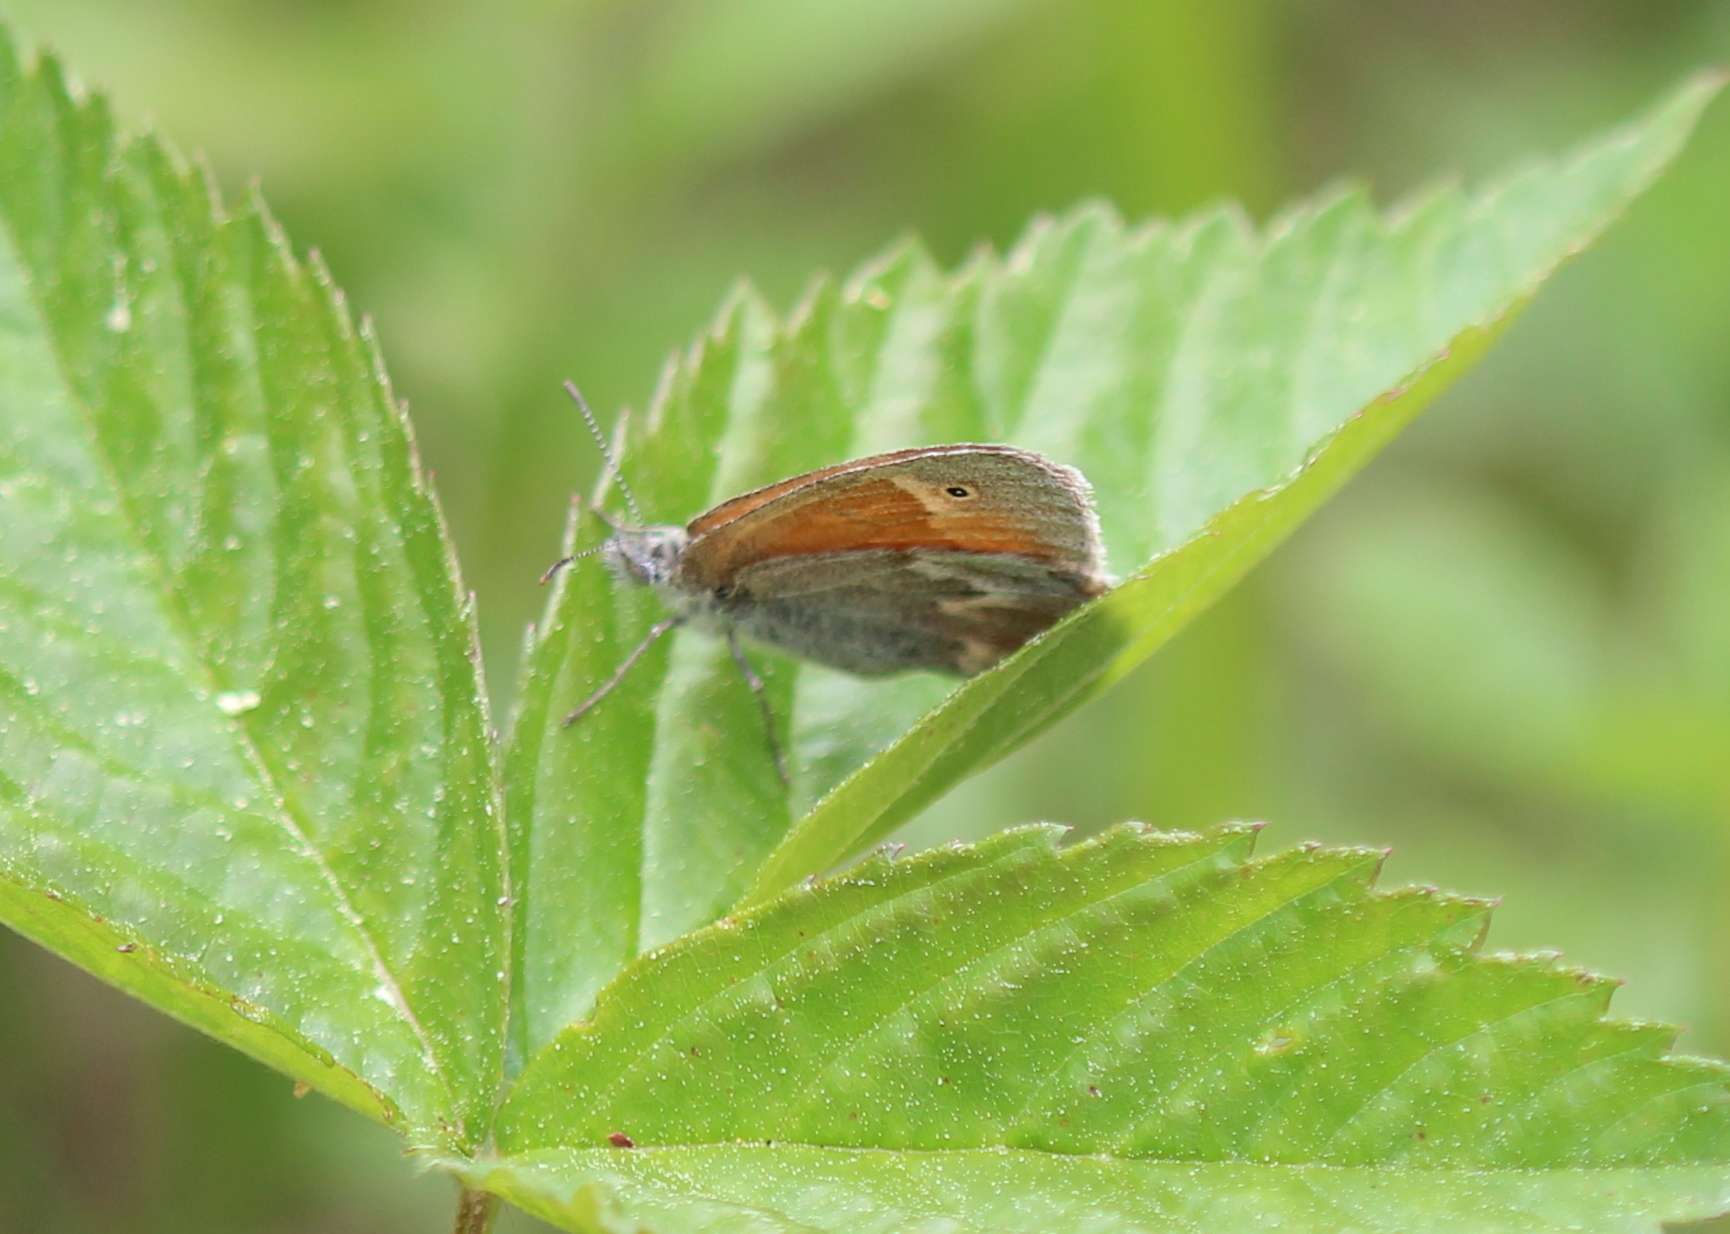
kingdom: Animalia
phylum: Arthropoda
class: Insecta
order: Lepidoptera
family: Nymphalidae
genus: Coenonympha
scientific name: Coenonympha california
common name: Common ringlet
